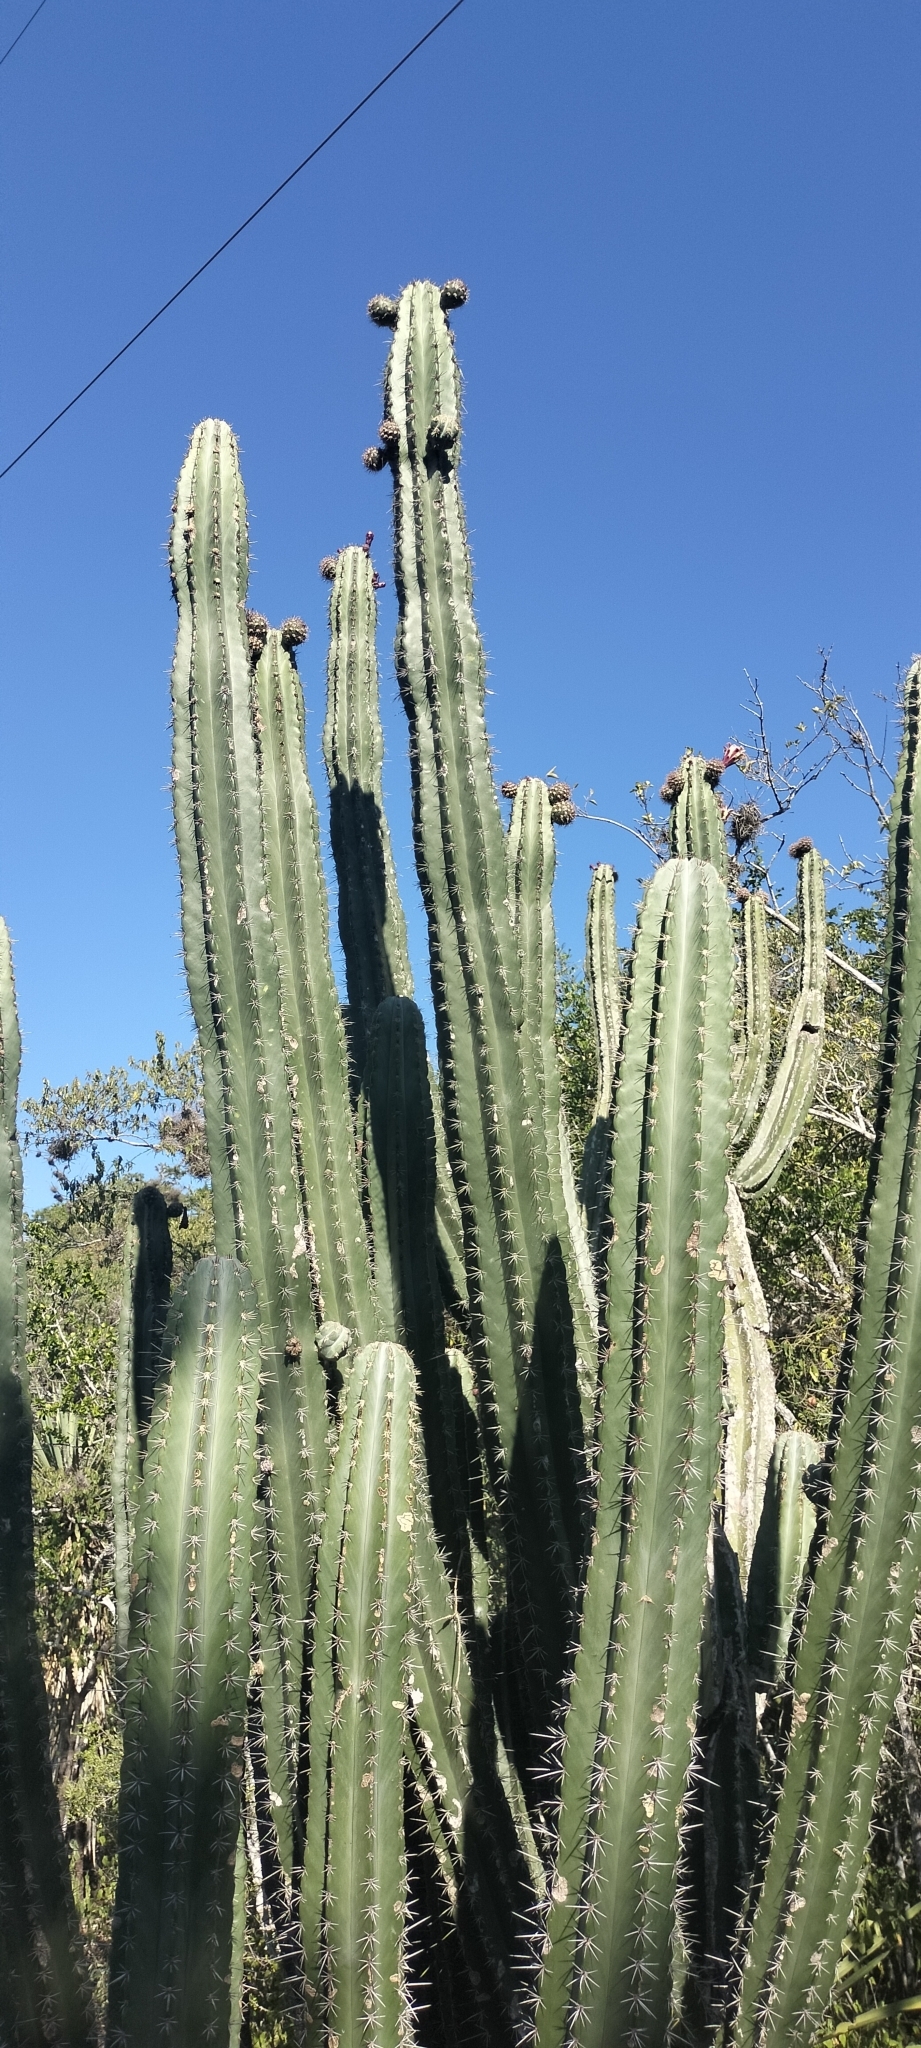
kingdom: Plantae
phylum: Tracheophyta
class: Magnoliopsida
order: Caryophyllales
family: Cactaceae
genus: Stenocereus
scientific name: Stenocereus huastecorum
